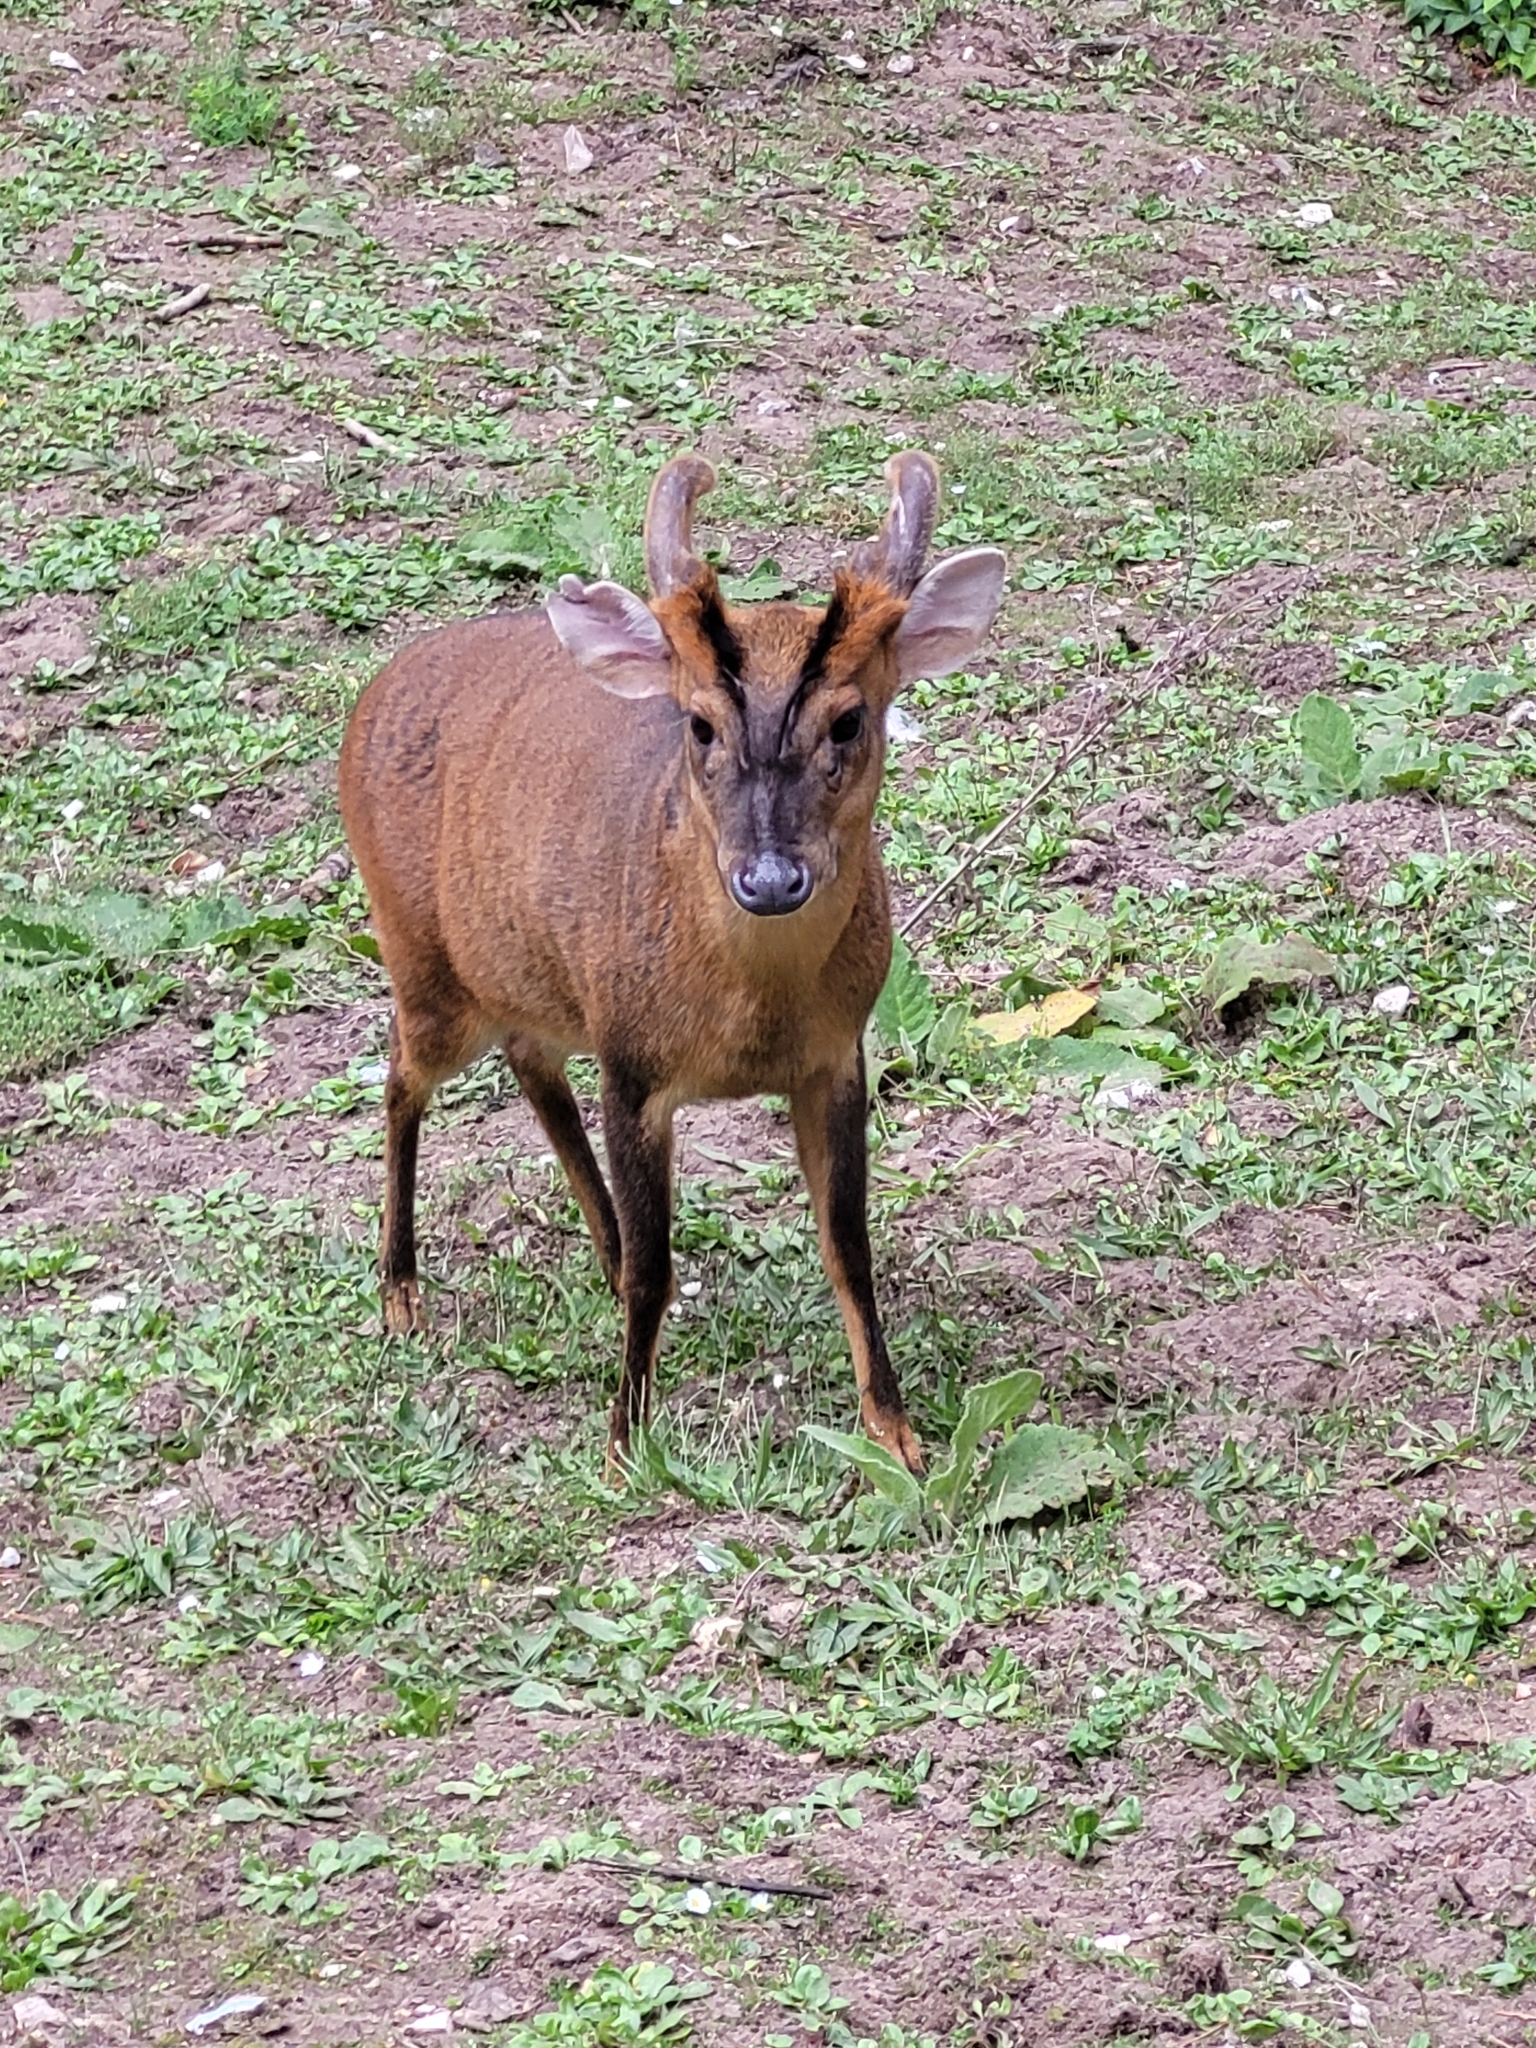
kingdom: Animalia
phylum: Chordata
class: Mammalia
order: Artiodactyla
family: Cervidae
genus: Muntiacus
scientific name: Muntiacus reevesi
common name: Reeves' muntjac
